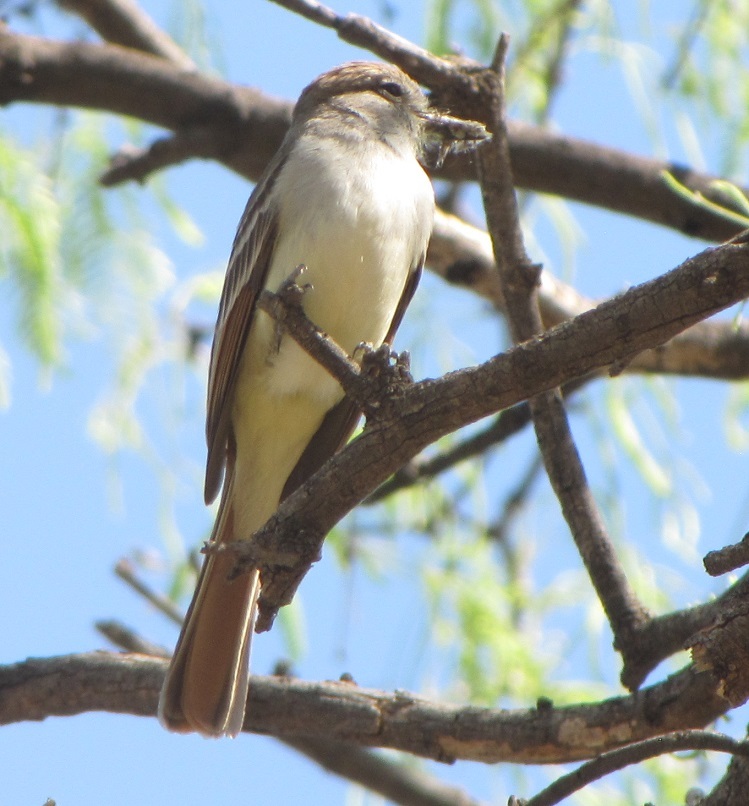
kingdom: Animalia
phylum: Chordata
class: Aves
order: Passeriformes
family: Tyrannidae
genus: Myiarchus
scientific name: Myiarchus tyrannulus
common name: Brown-crested flycatcher
